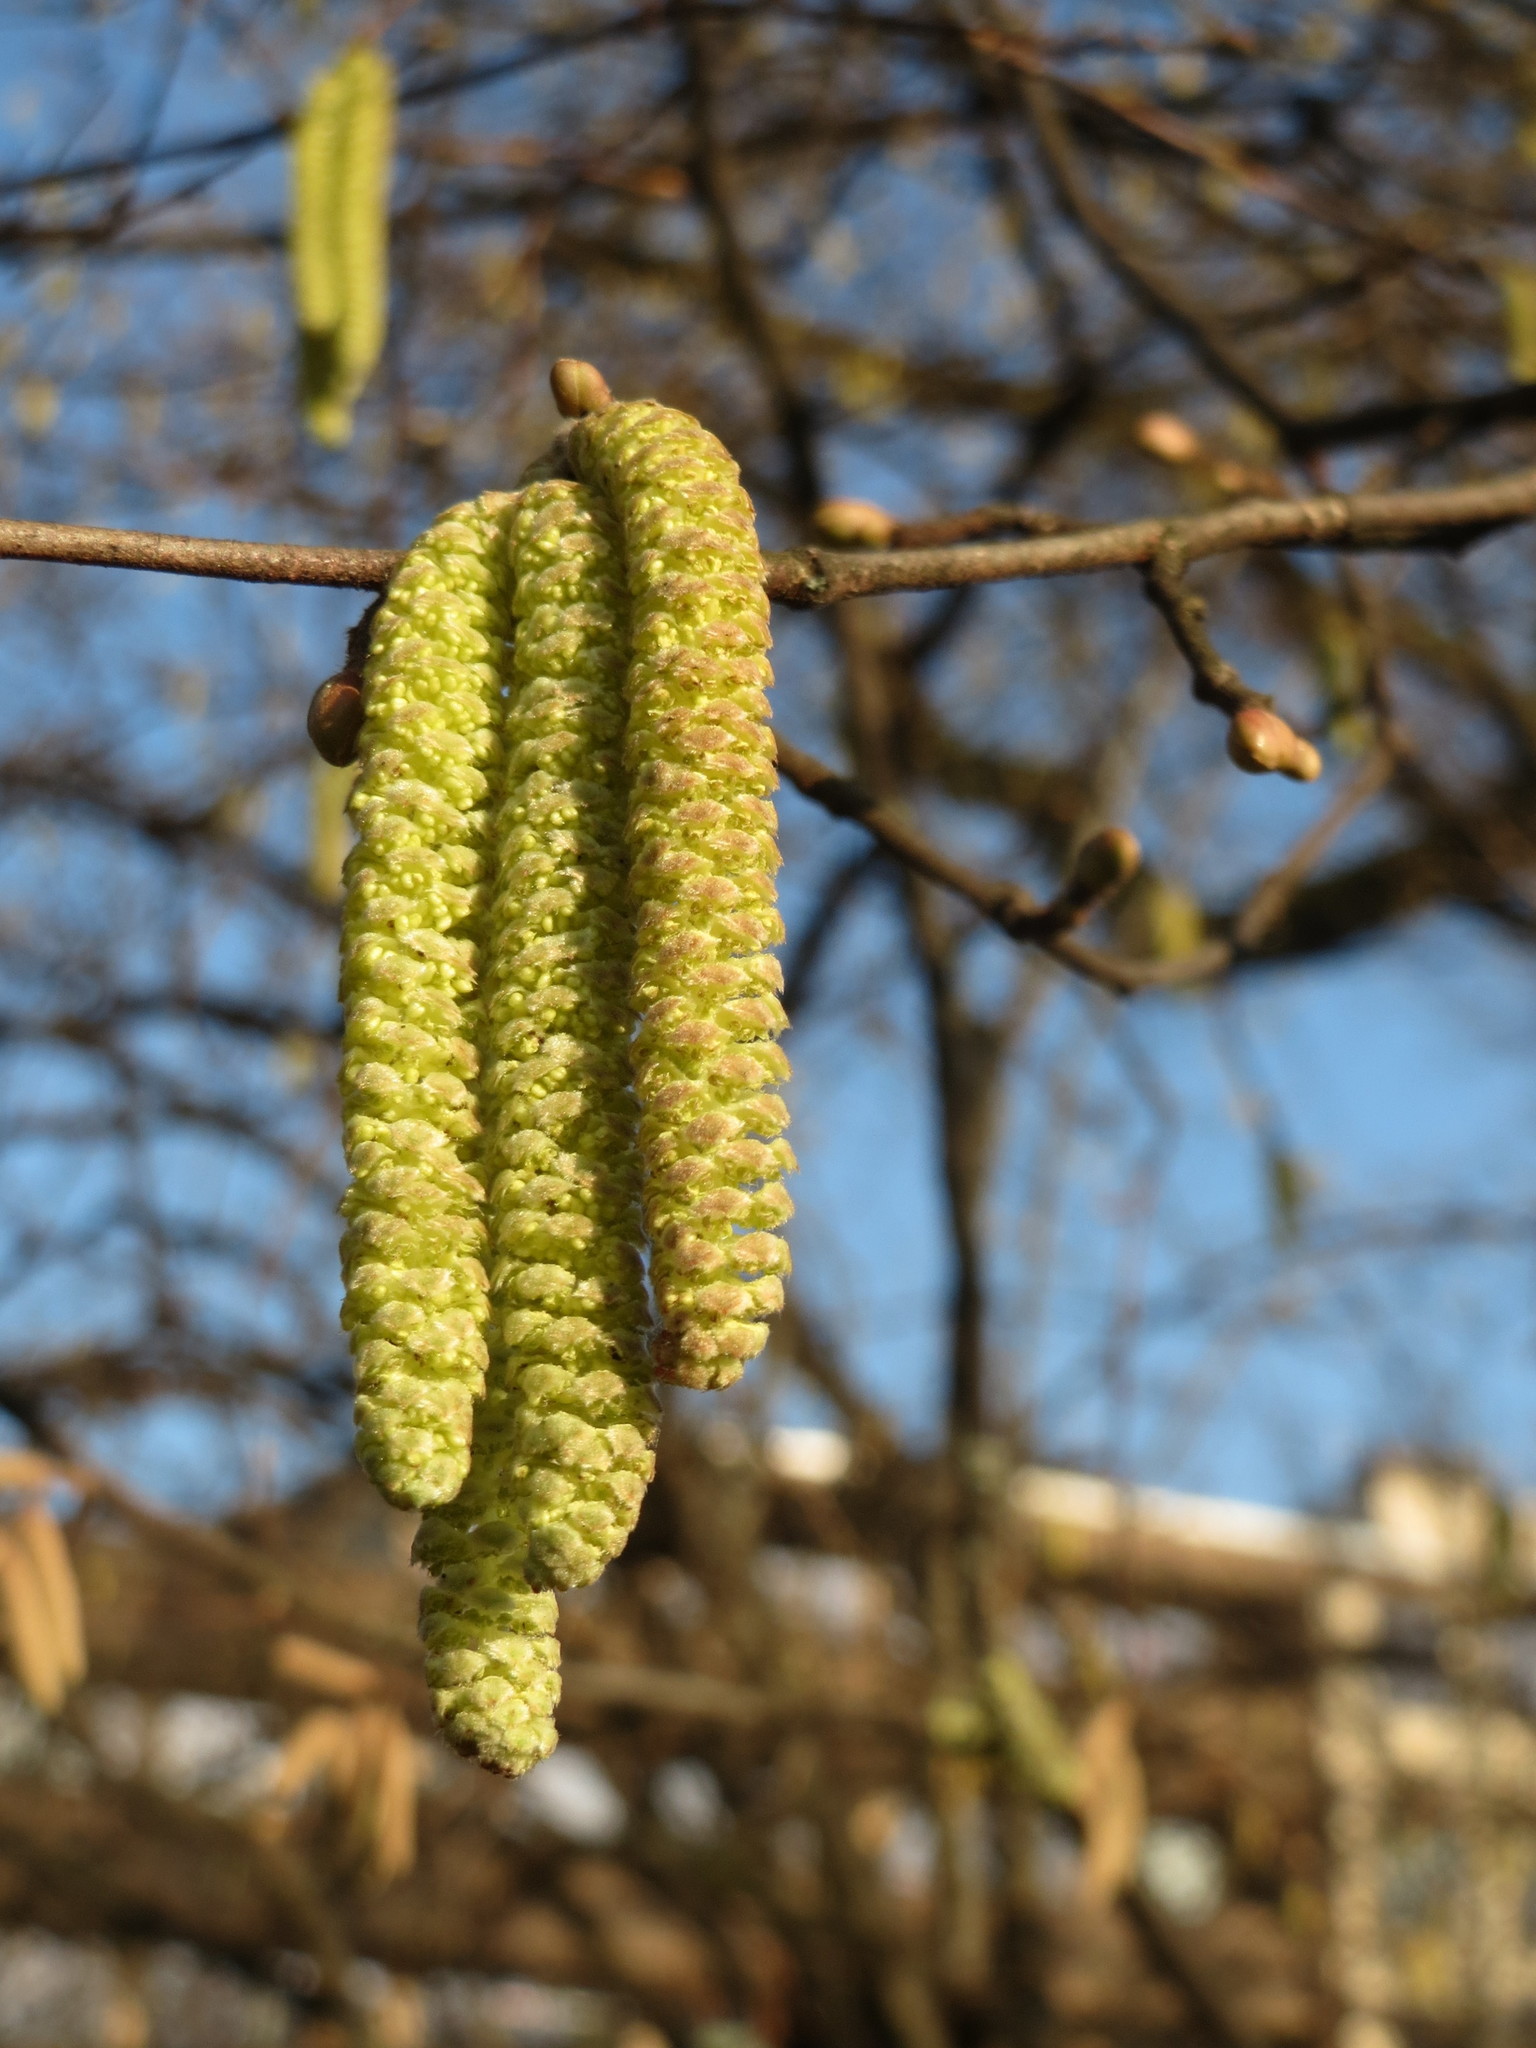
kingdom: Plantae
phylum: Tracheophyta
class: Magnoliopsida
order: Fagales
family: Betulaceae
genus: Corylus
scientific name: Corylus avellana
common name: European hazel
